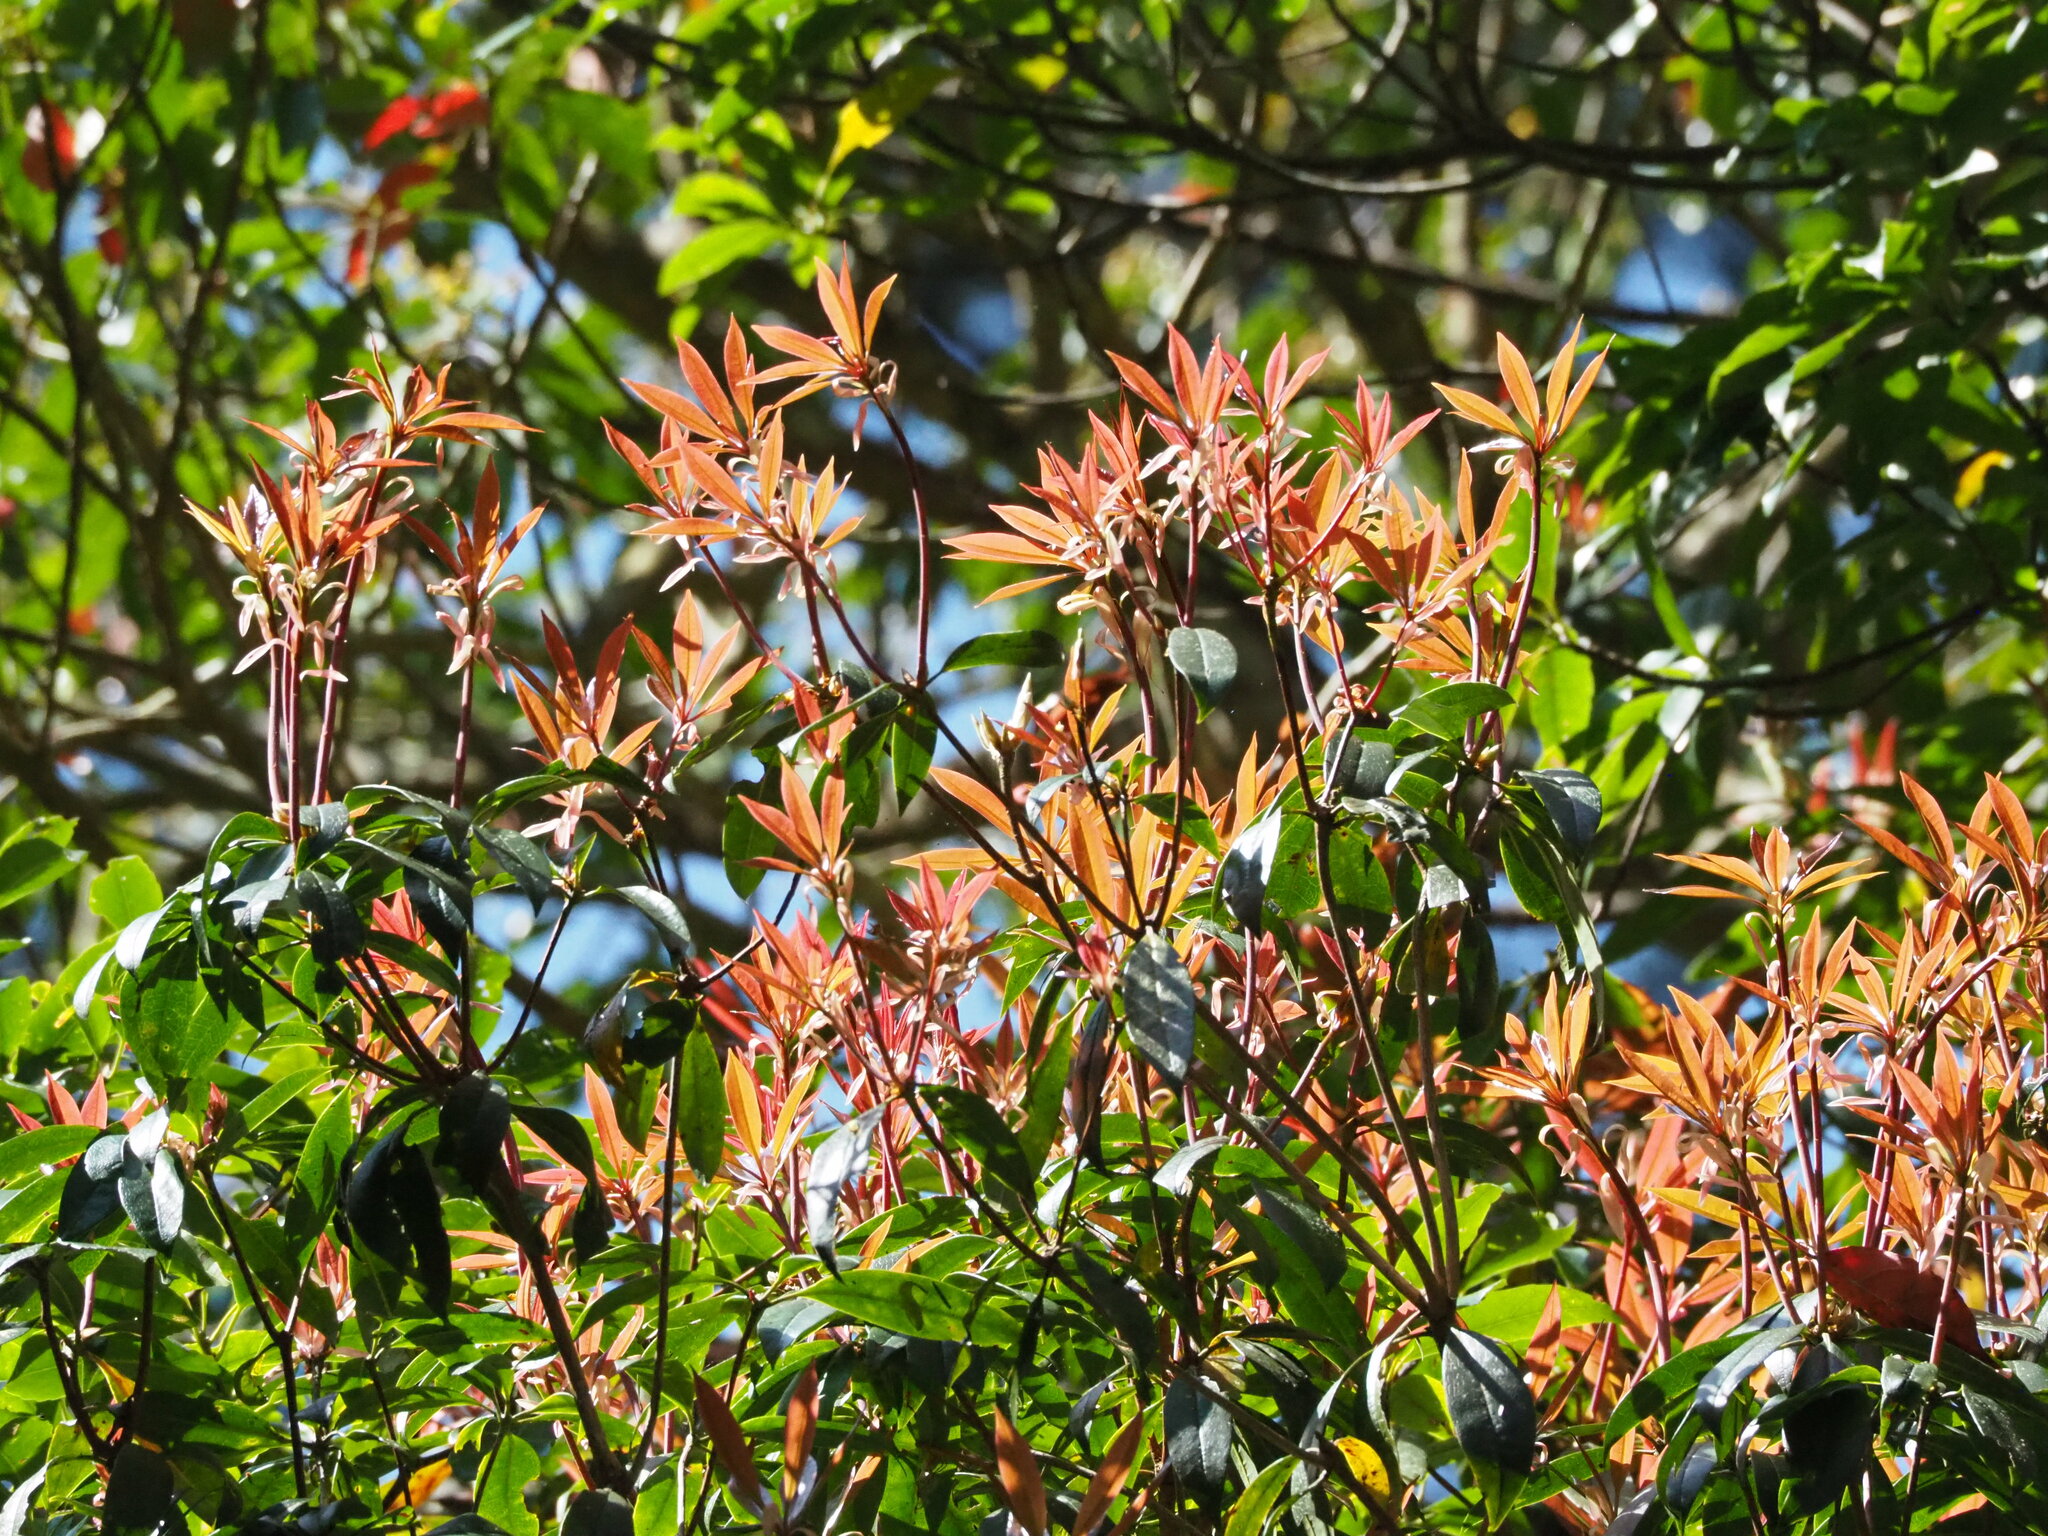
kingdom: Plantae
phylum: Tracheophyta
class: Magnoliopsida
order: Ericales
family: Ericaceae
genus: Rhododendron
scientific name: Rhododendron latoucheae
